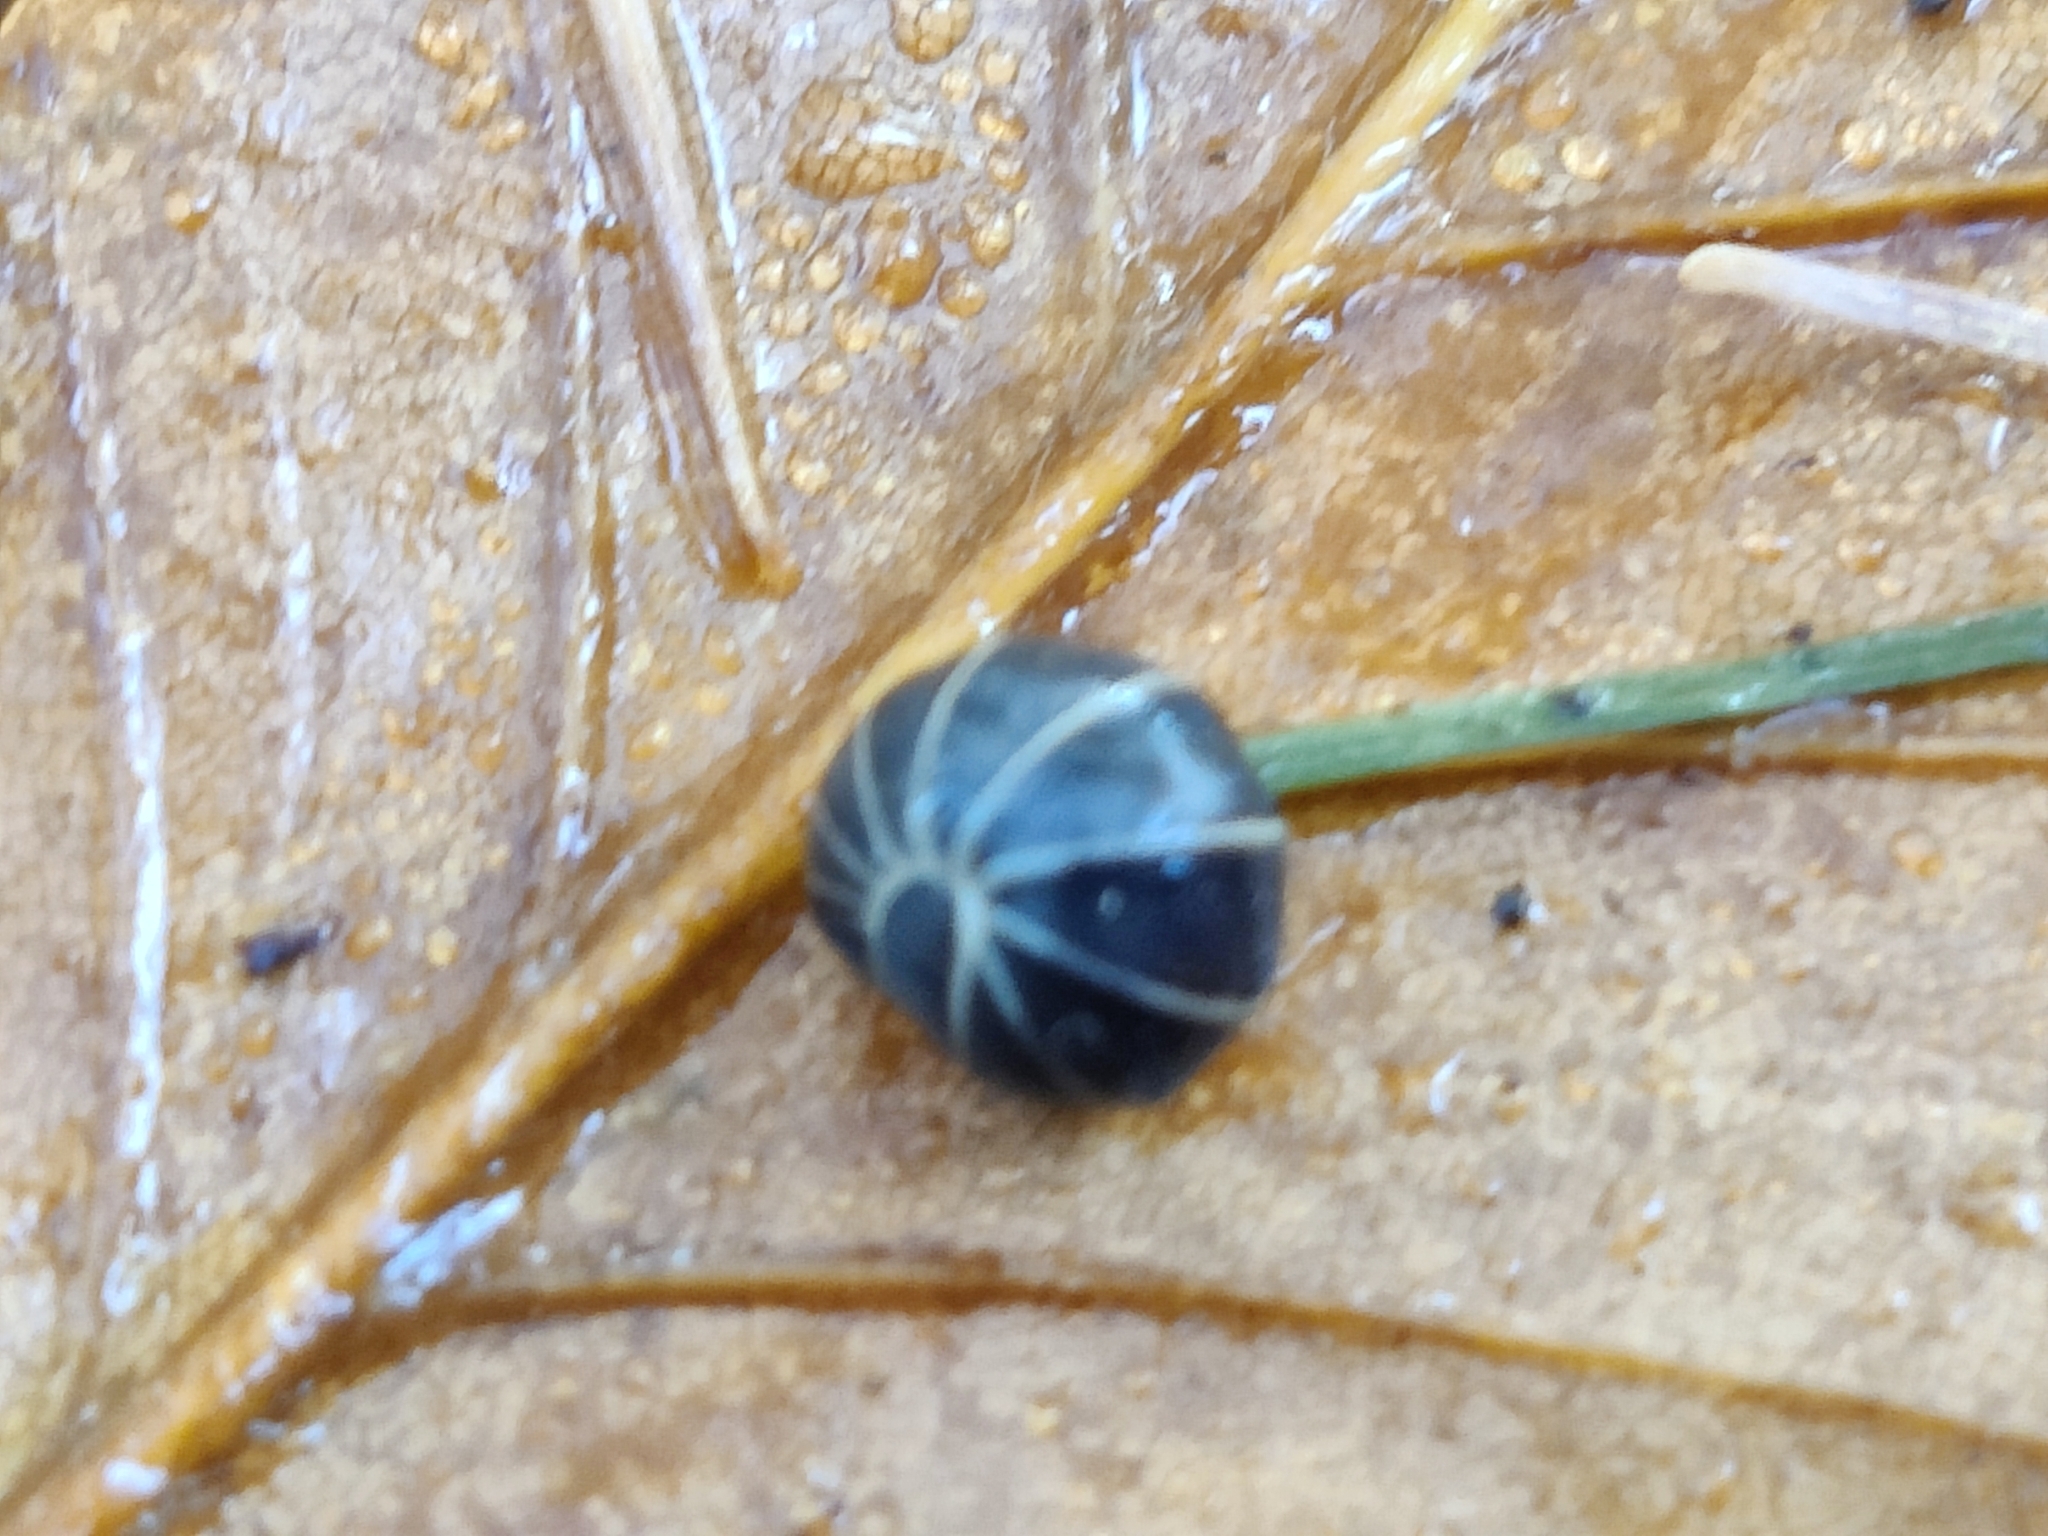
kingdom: Animalia
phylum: Arthropoda
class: Diplopoda
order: Glomerida
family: Glomeridae
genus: Glomeris
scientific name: Glomeris marginata
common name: Bordered pill millipede
